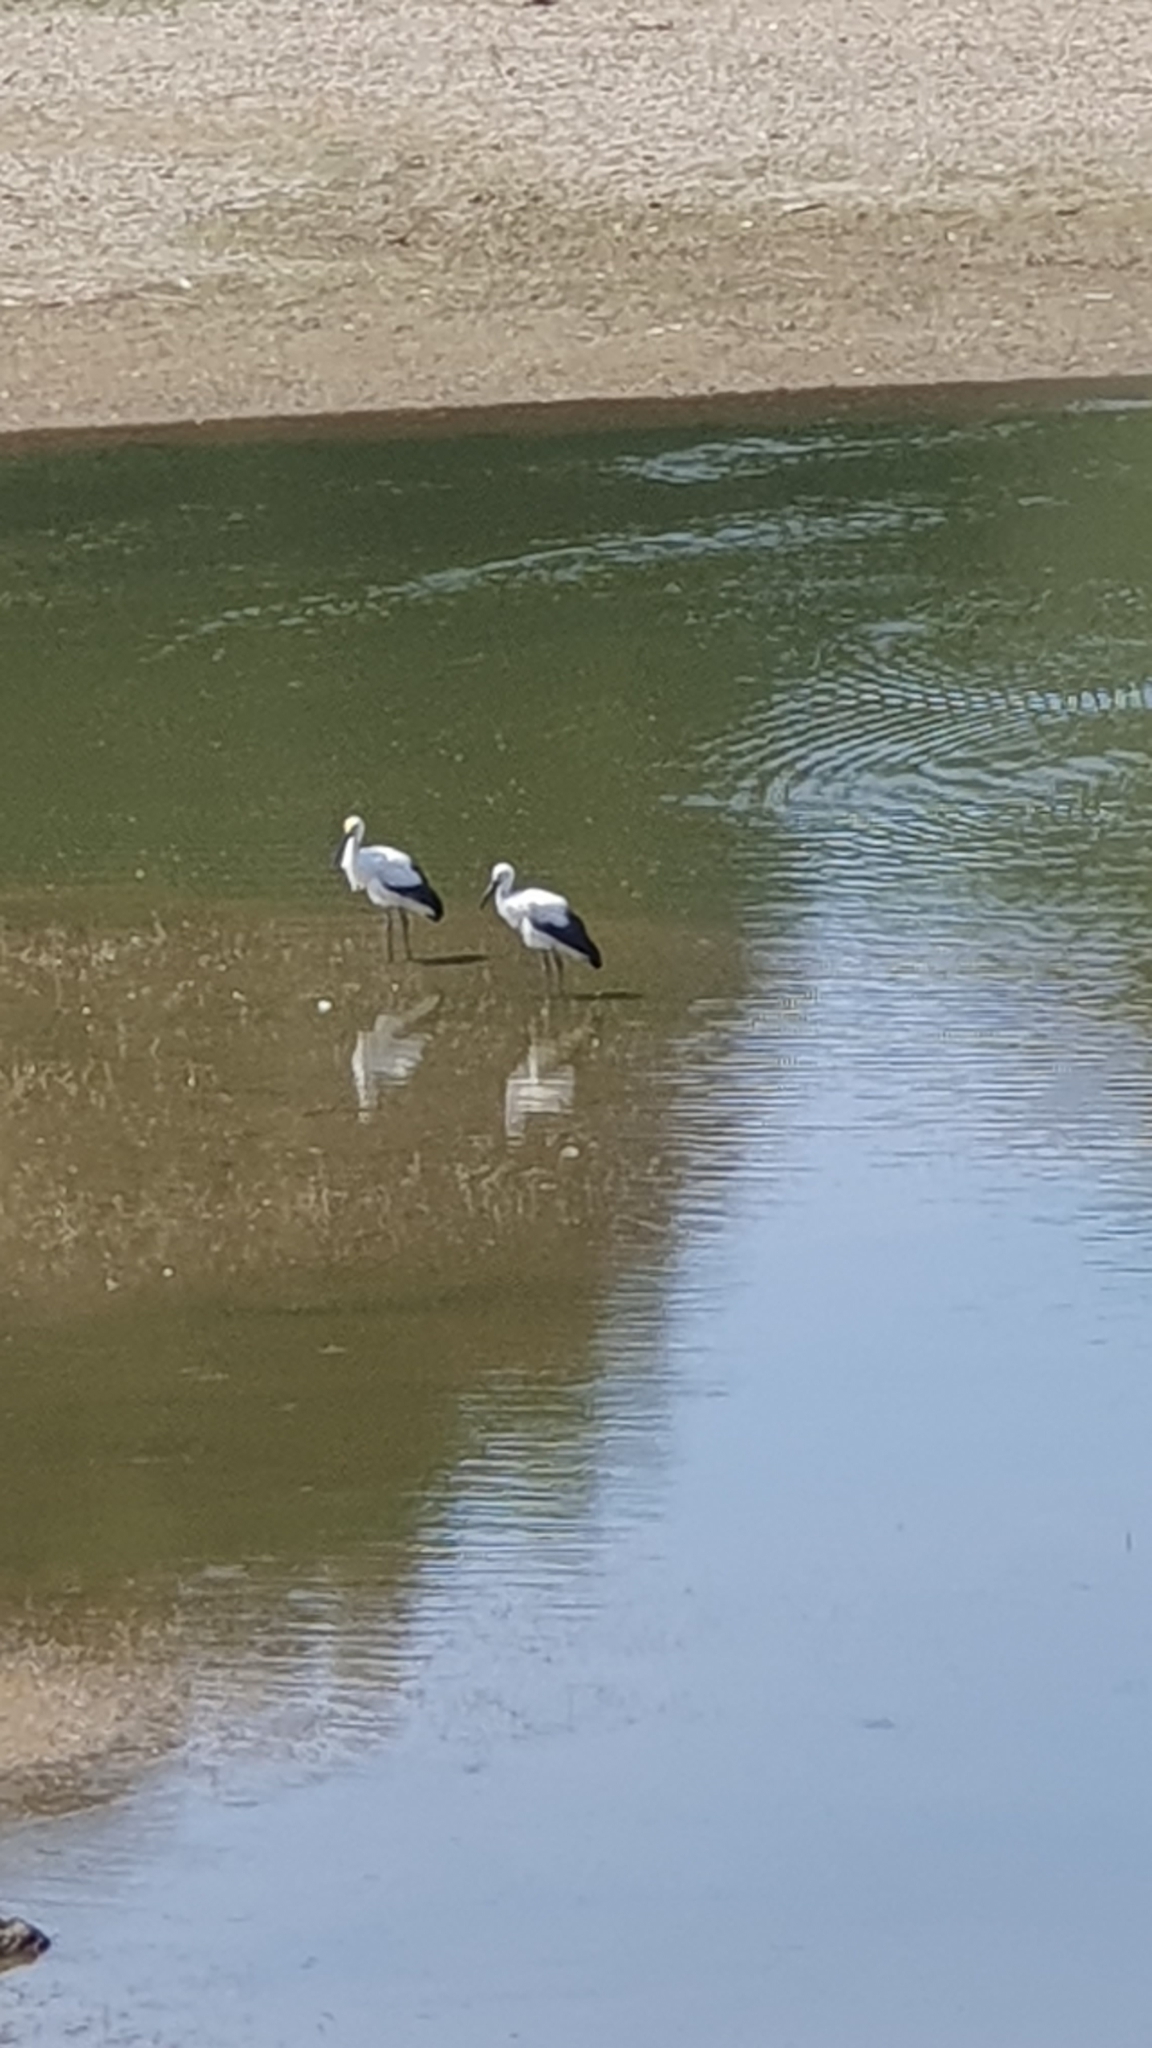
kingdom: Animalia
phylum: Chordata
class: Aves
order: Ciconiiformes
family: Ciconiidae
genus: Ciconia
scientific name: Ciconia boyciana
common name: Oriental stork
